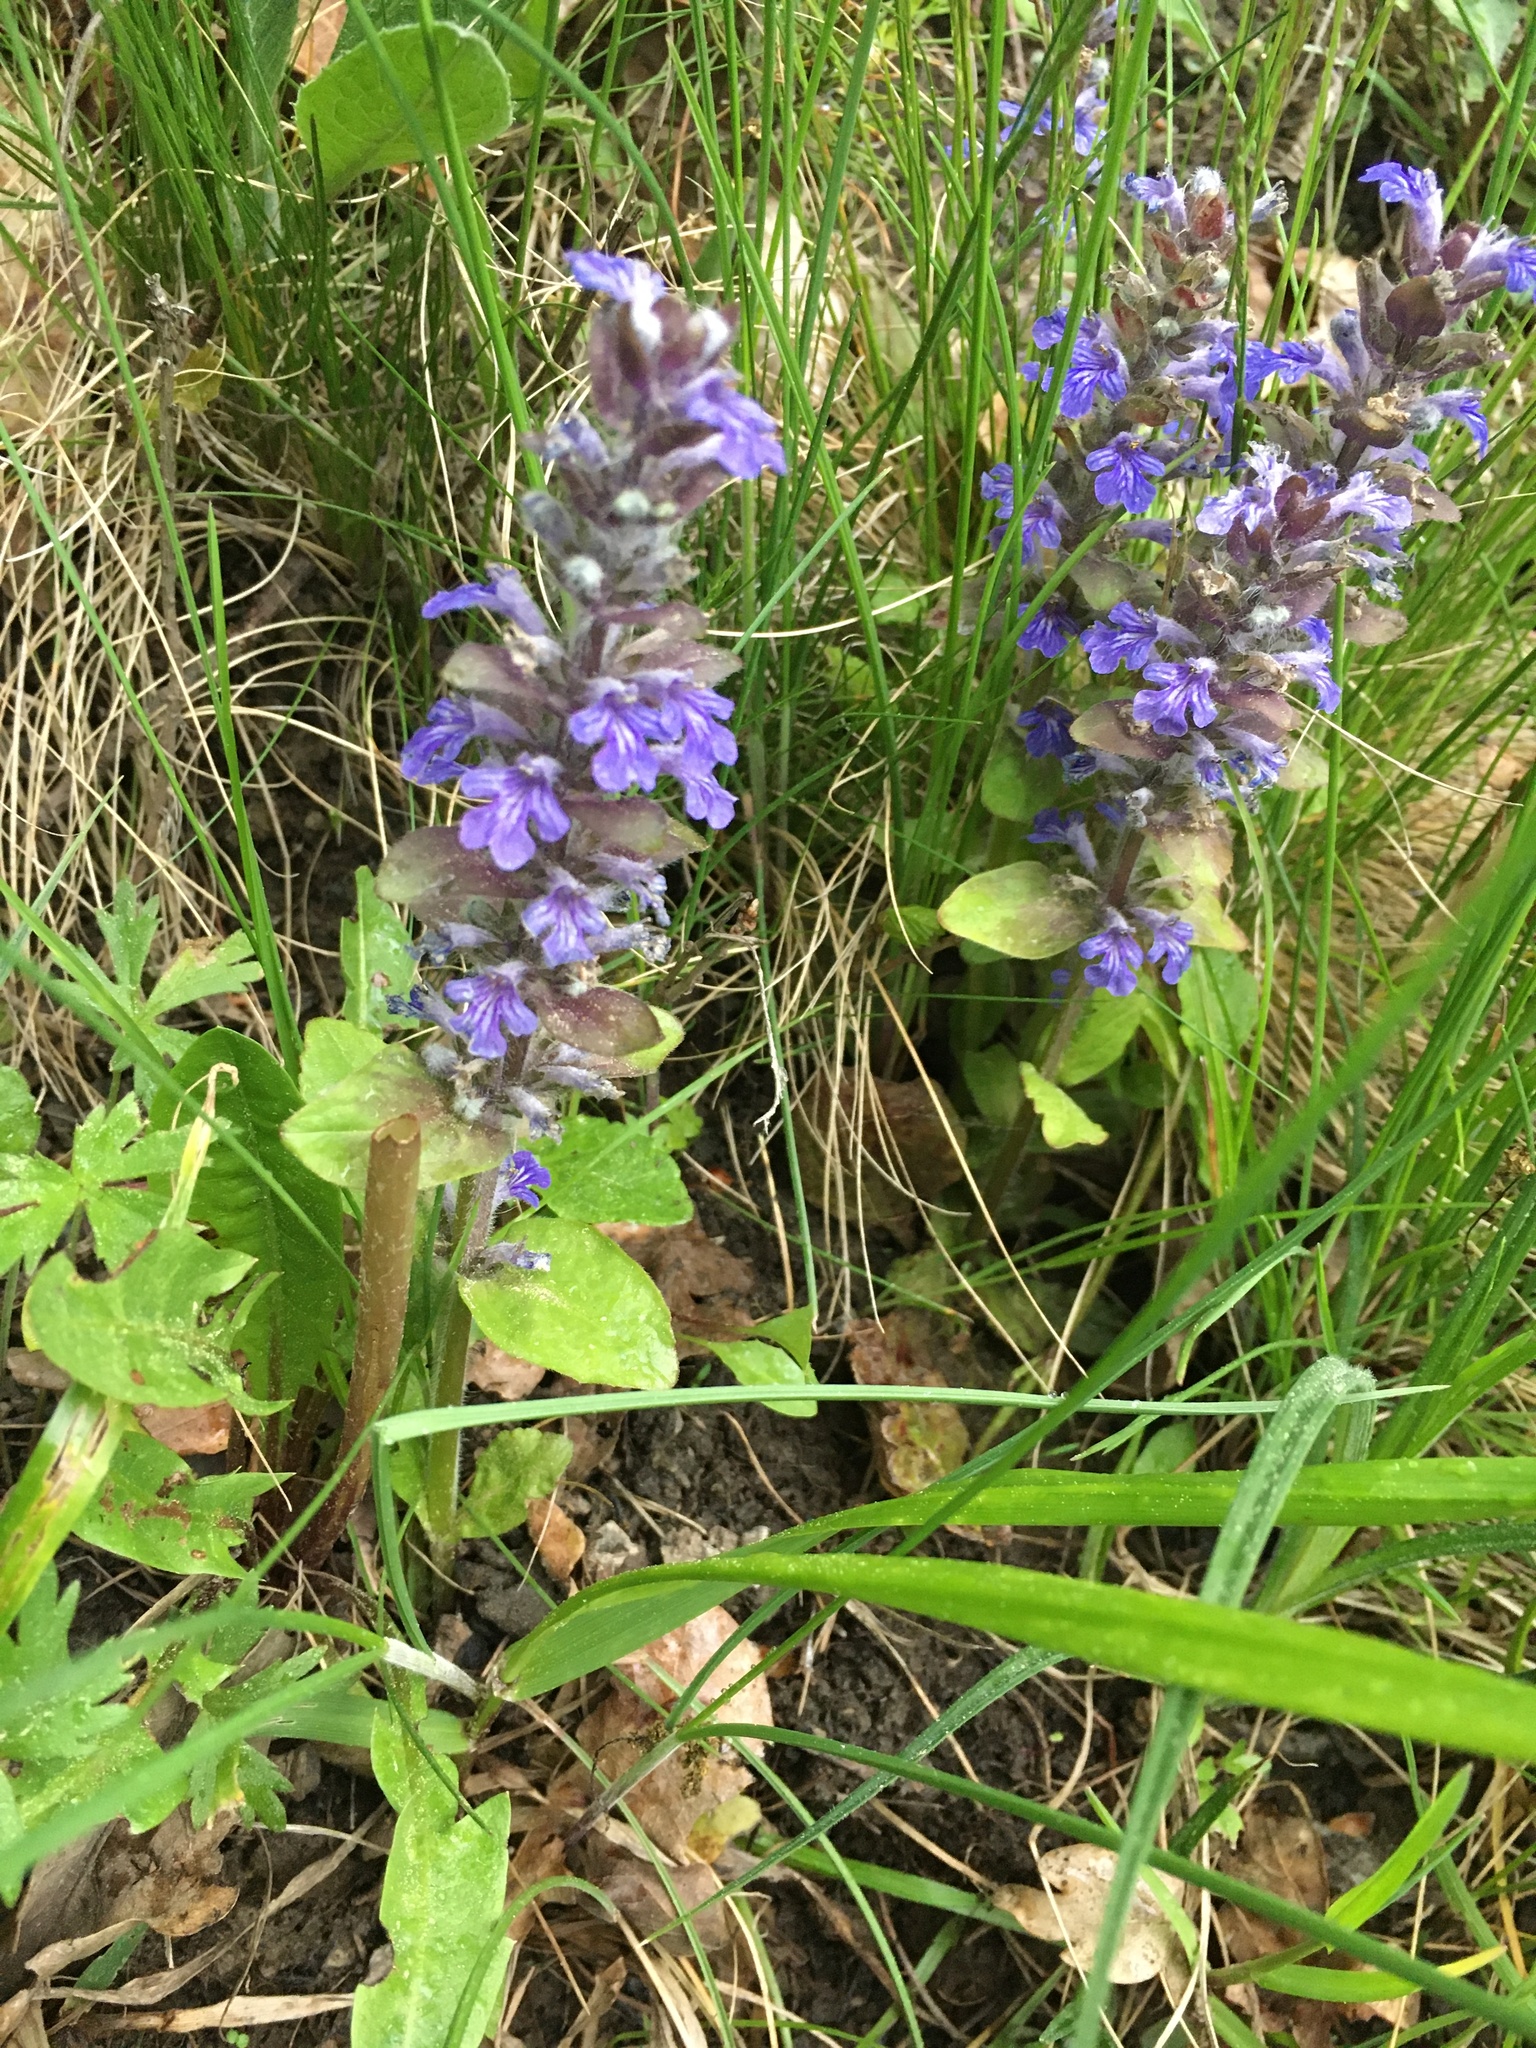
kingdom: Plantae
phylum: Tracheophyta
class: Magnoliopsida
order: Lamiales
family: Lamiaceae
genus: Ajuga
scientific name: Ajuga reptans
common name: Bugle
